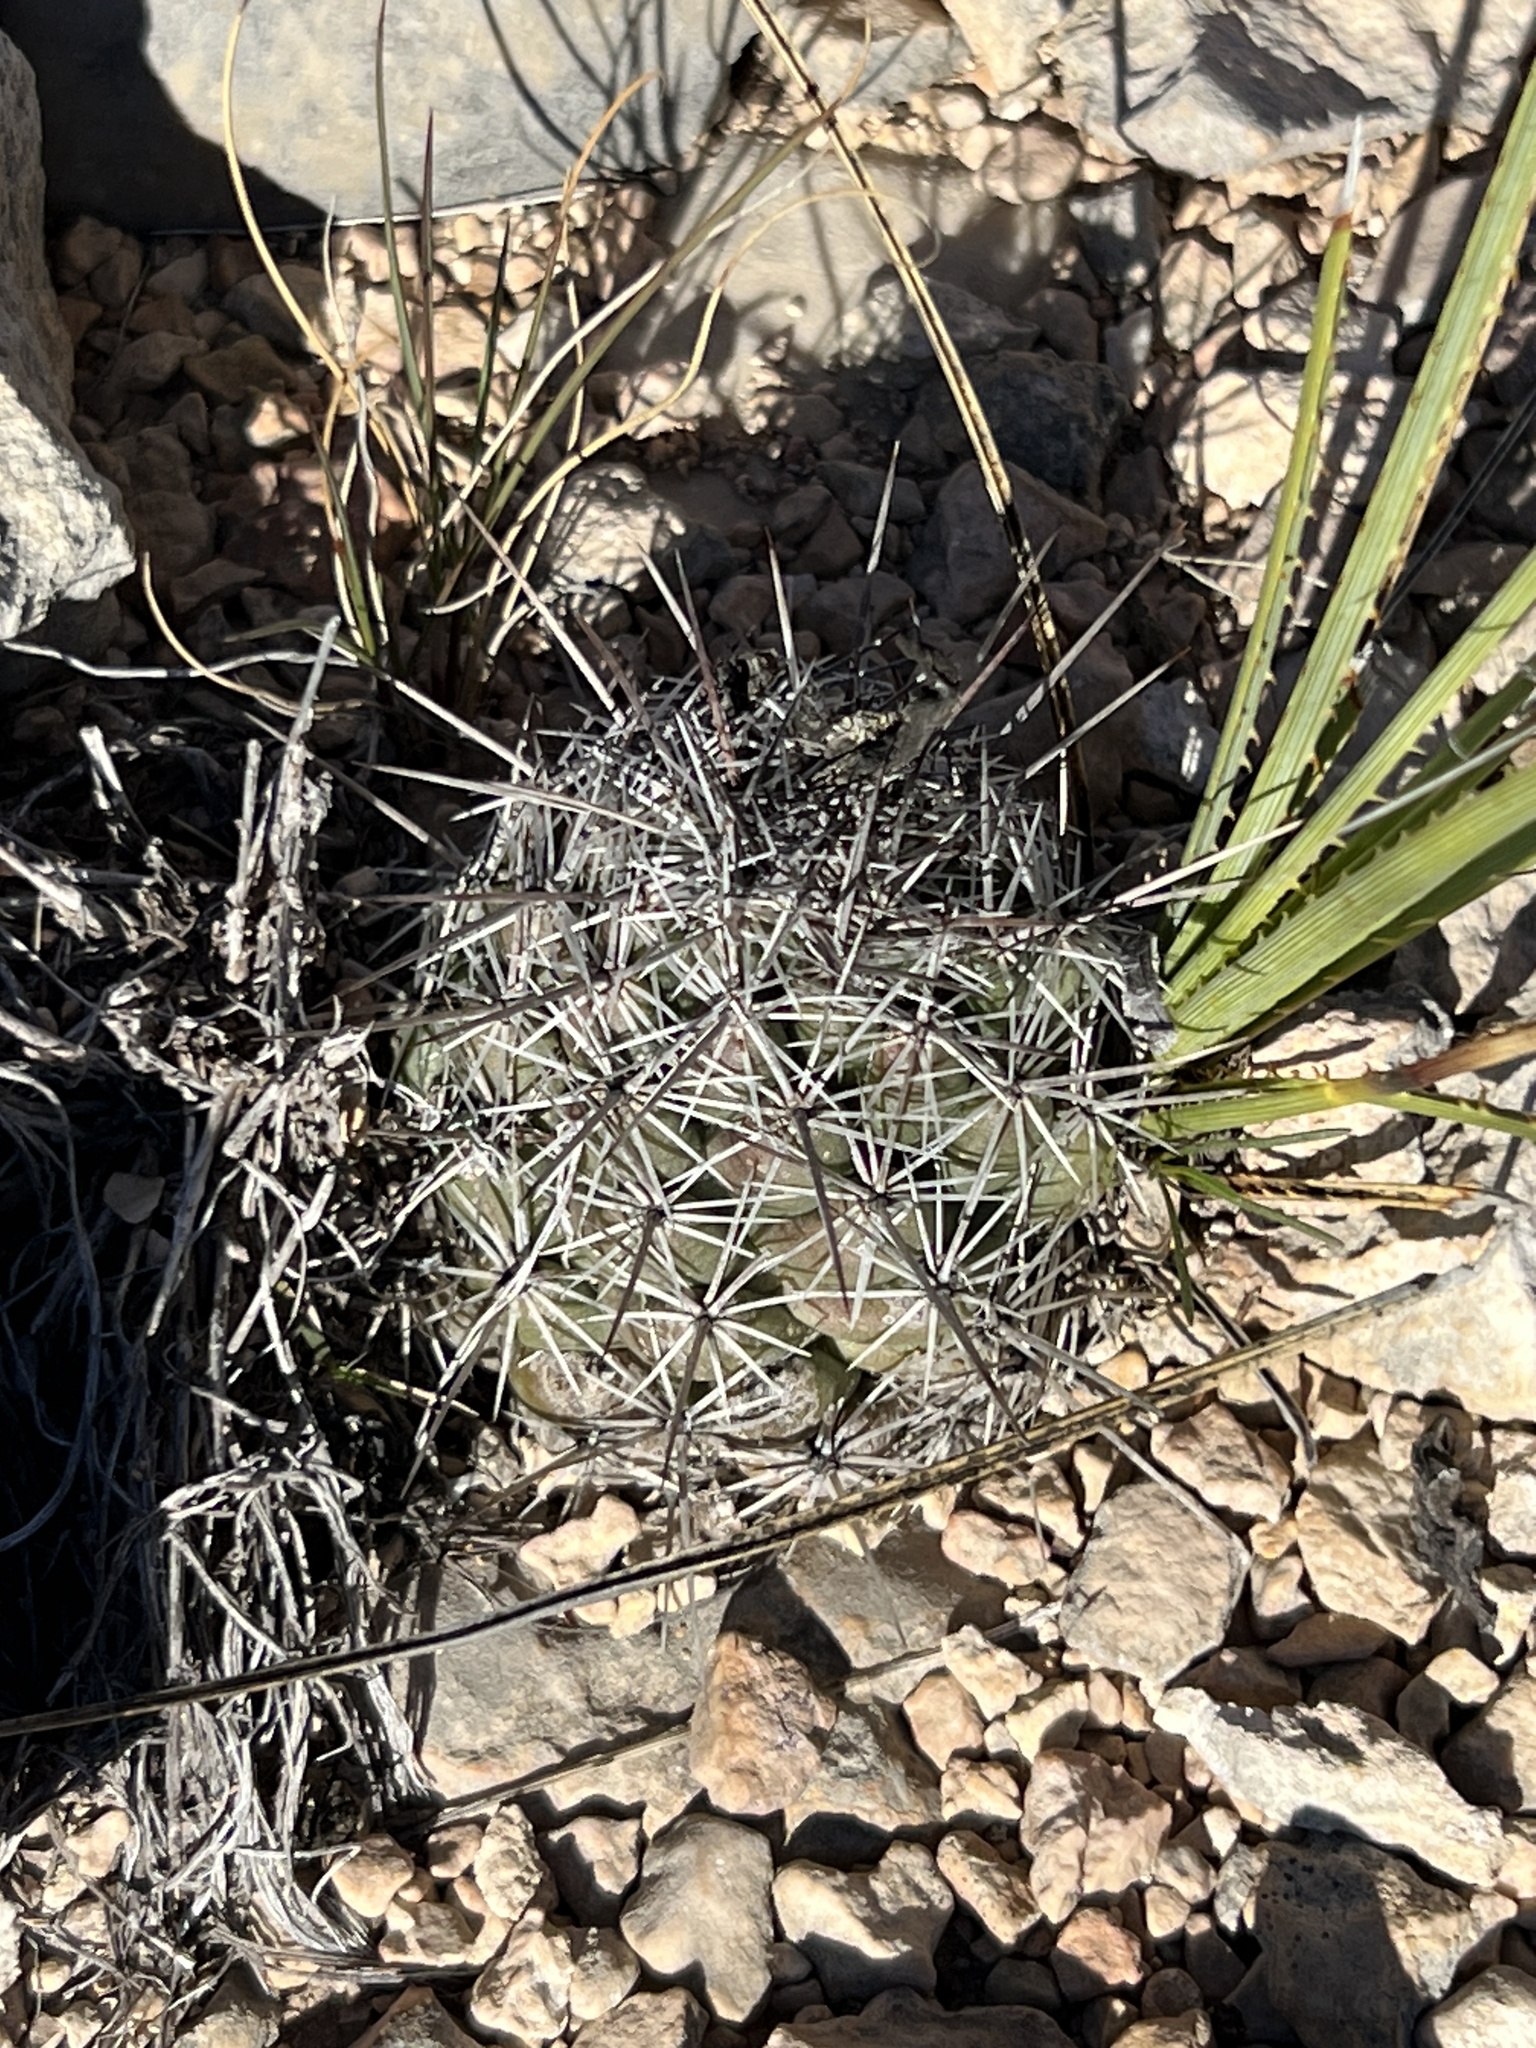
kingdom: Plantae
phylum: Tracheophyta
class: Magnoliopsida
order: Caryophyllales
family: Cactaceae
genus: Cochemiea
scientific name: Cochemiea conoidea
